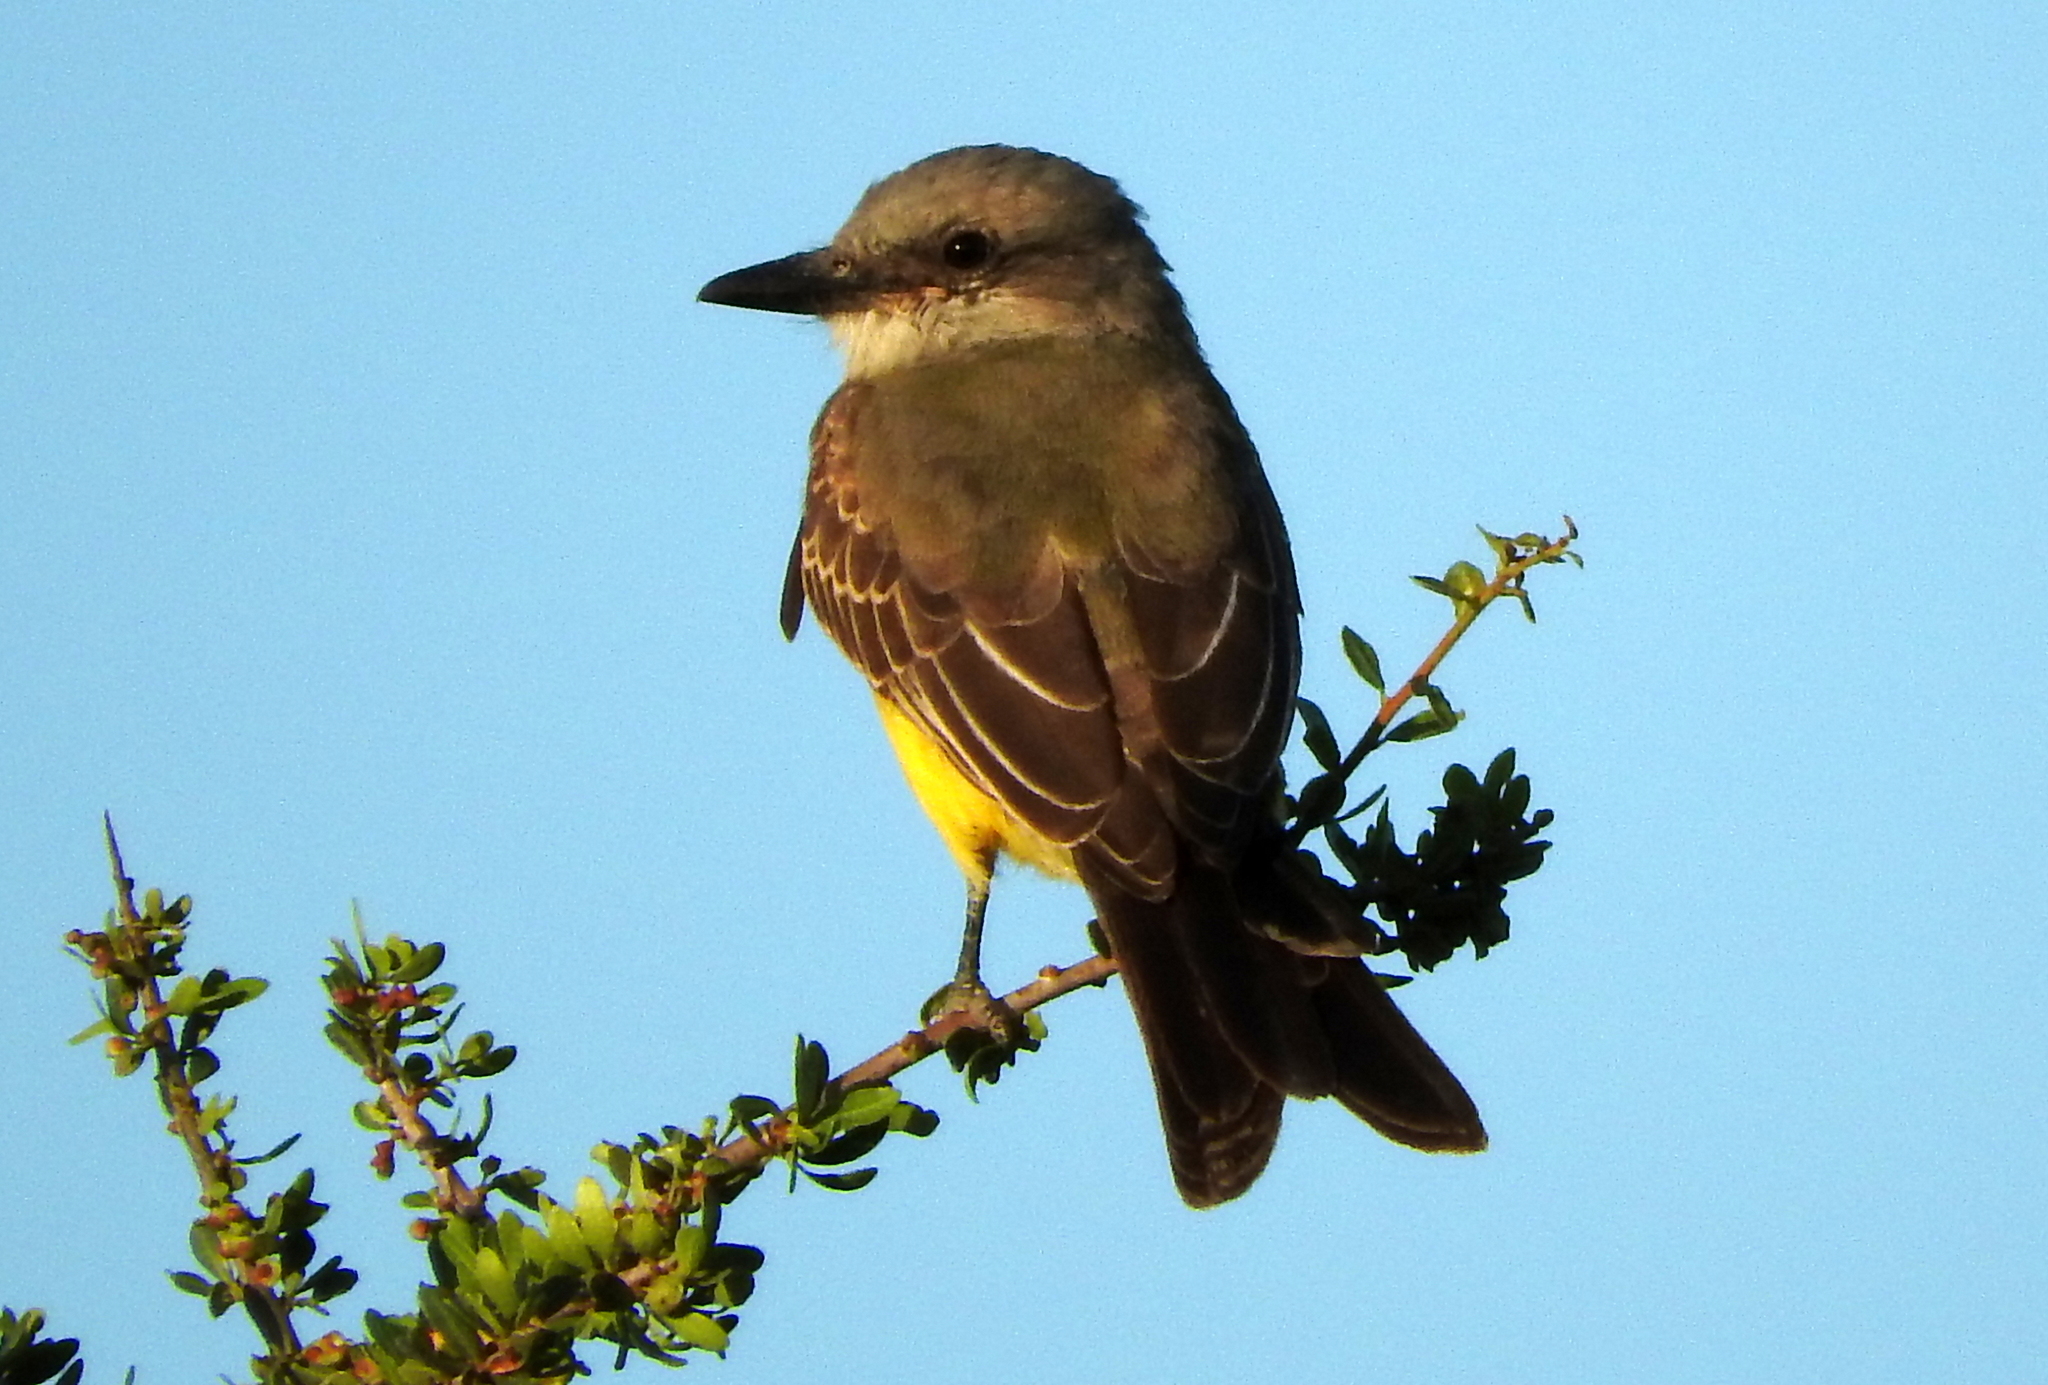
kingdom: Animalia
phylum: Chordata
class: Aves
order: Passeriformes
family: Tyrannidae
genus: Tyrannus
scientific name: Tyrannus melancholicus
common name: Tropical kingbird
